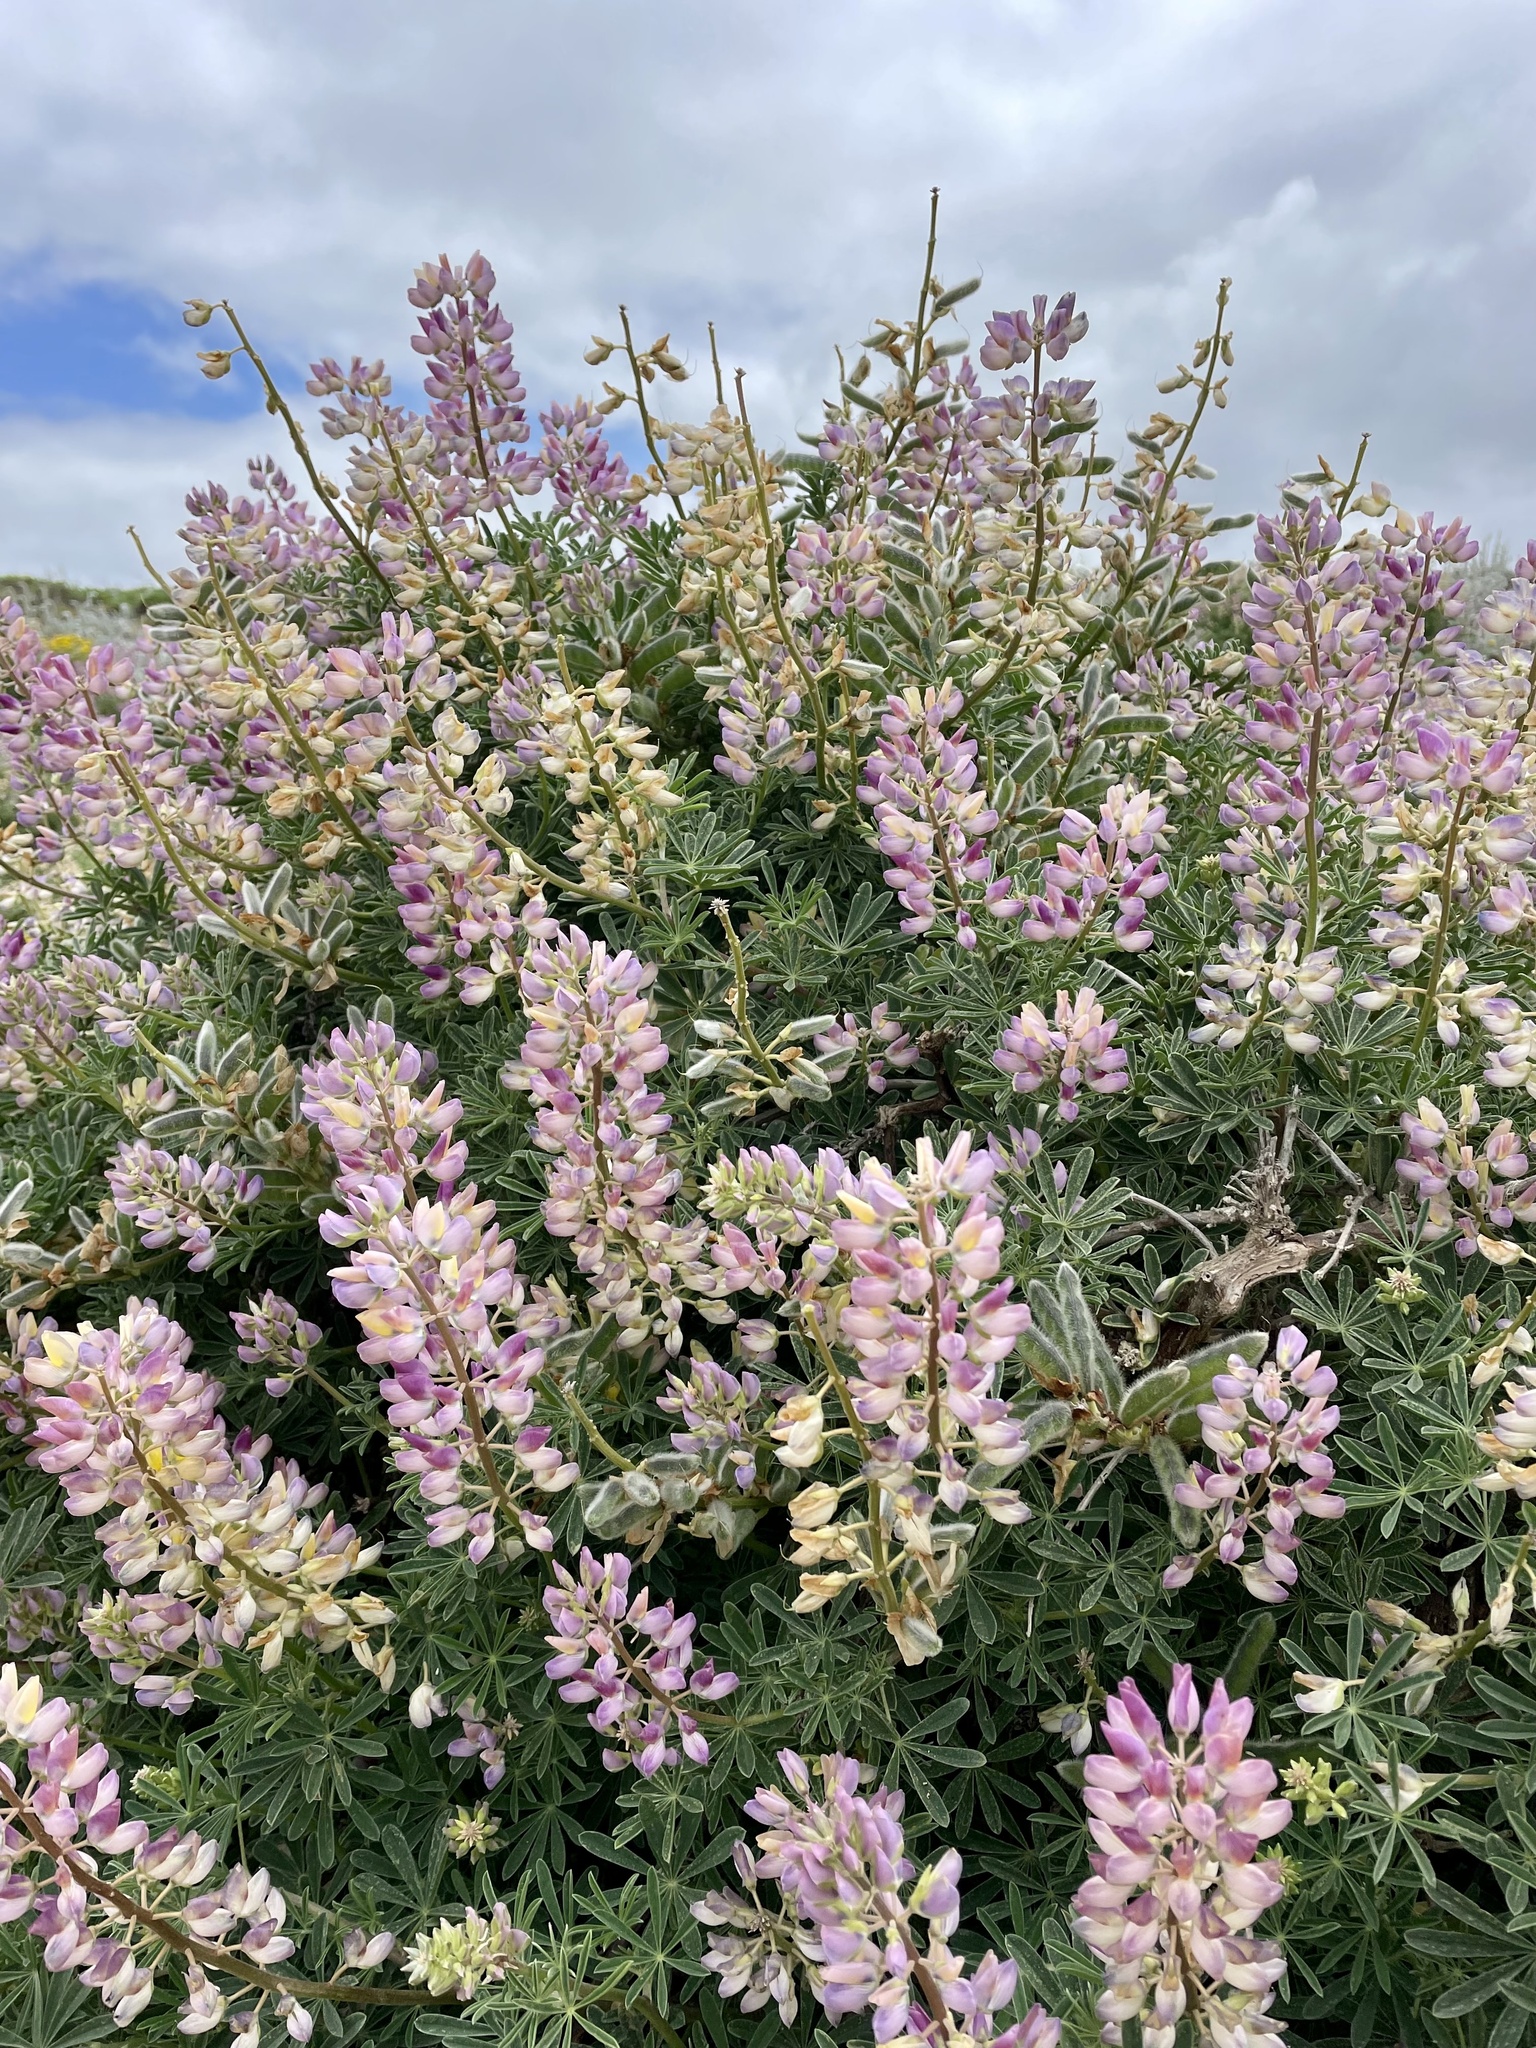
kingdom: Plantae
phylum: Tracheophyta
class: Magnoliopsida
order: Fabales
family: Fabaceae
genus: Lupinus
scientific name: Lupinus arboreus
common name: Yellow bush lupine
